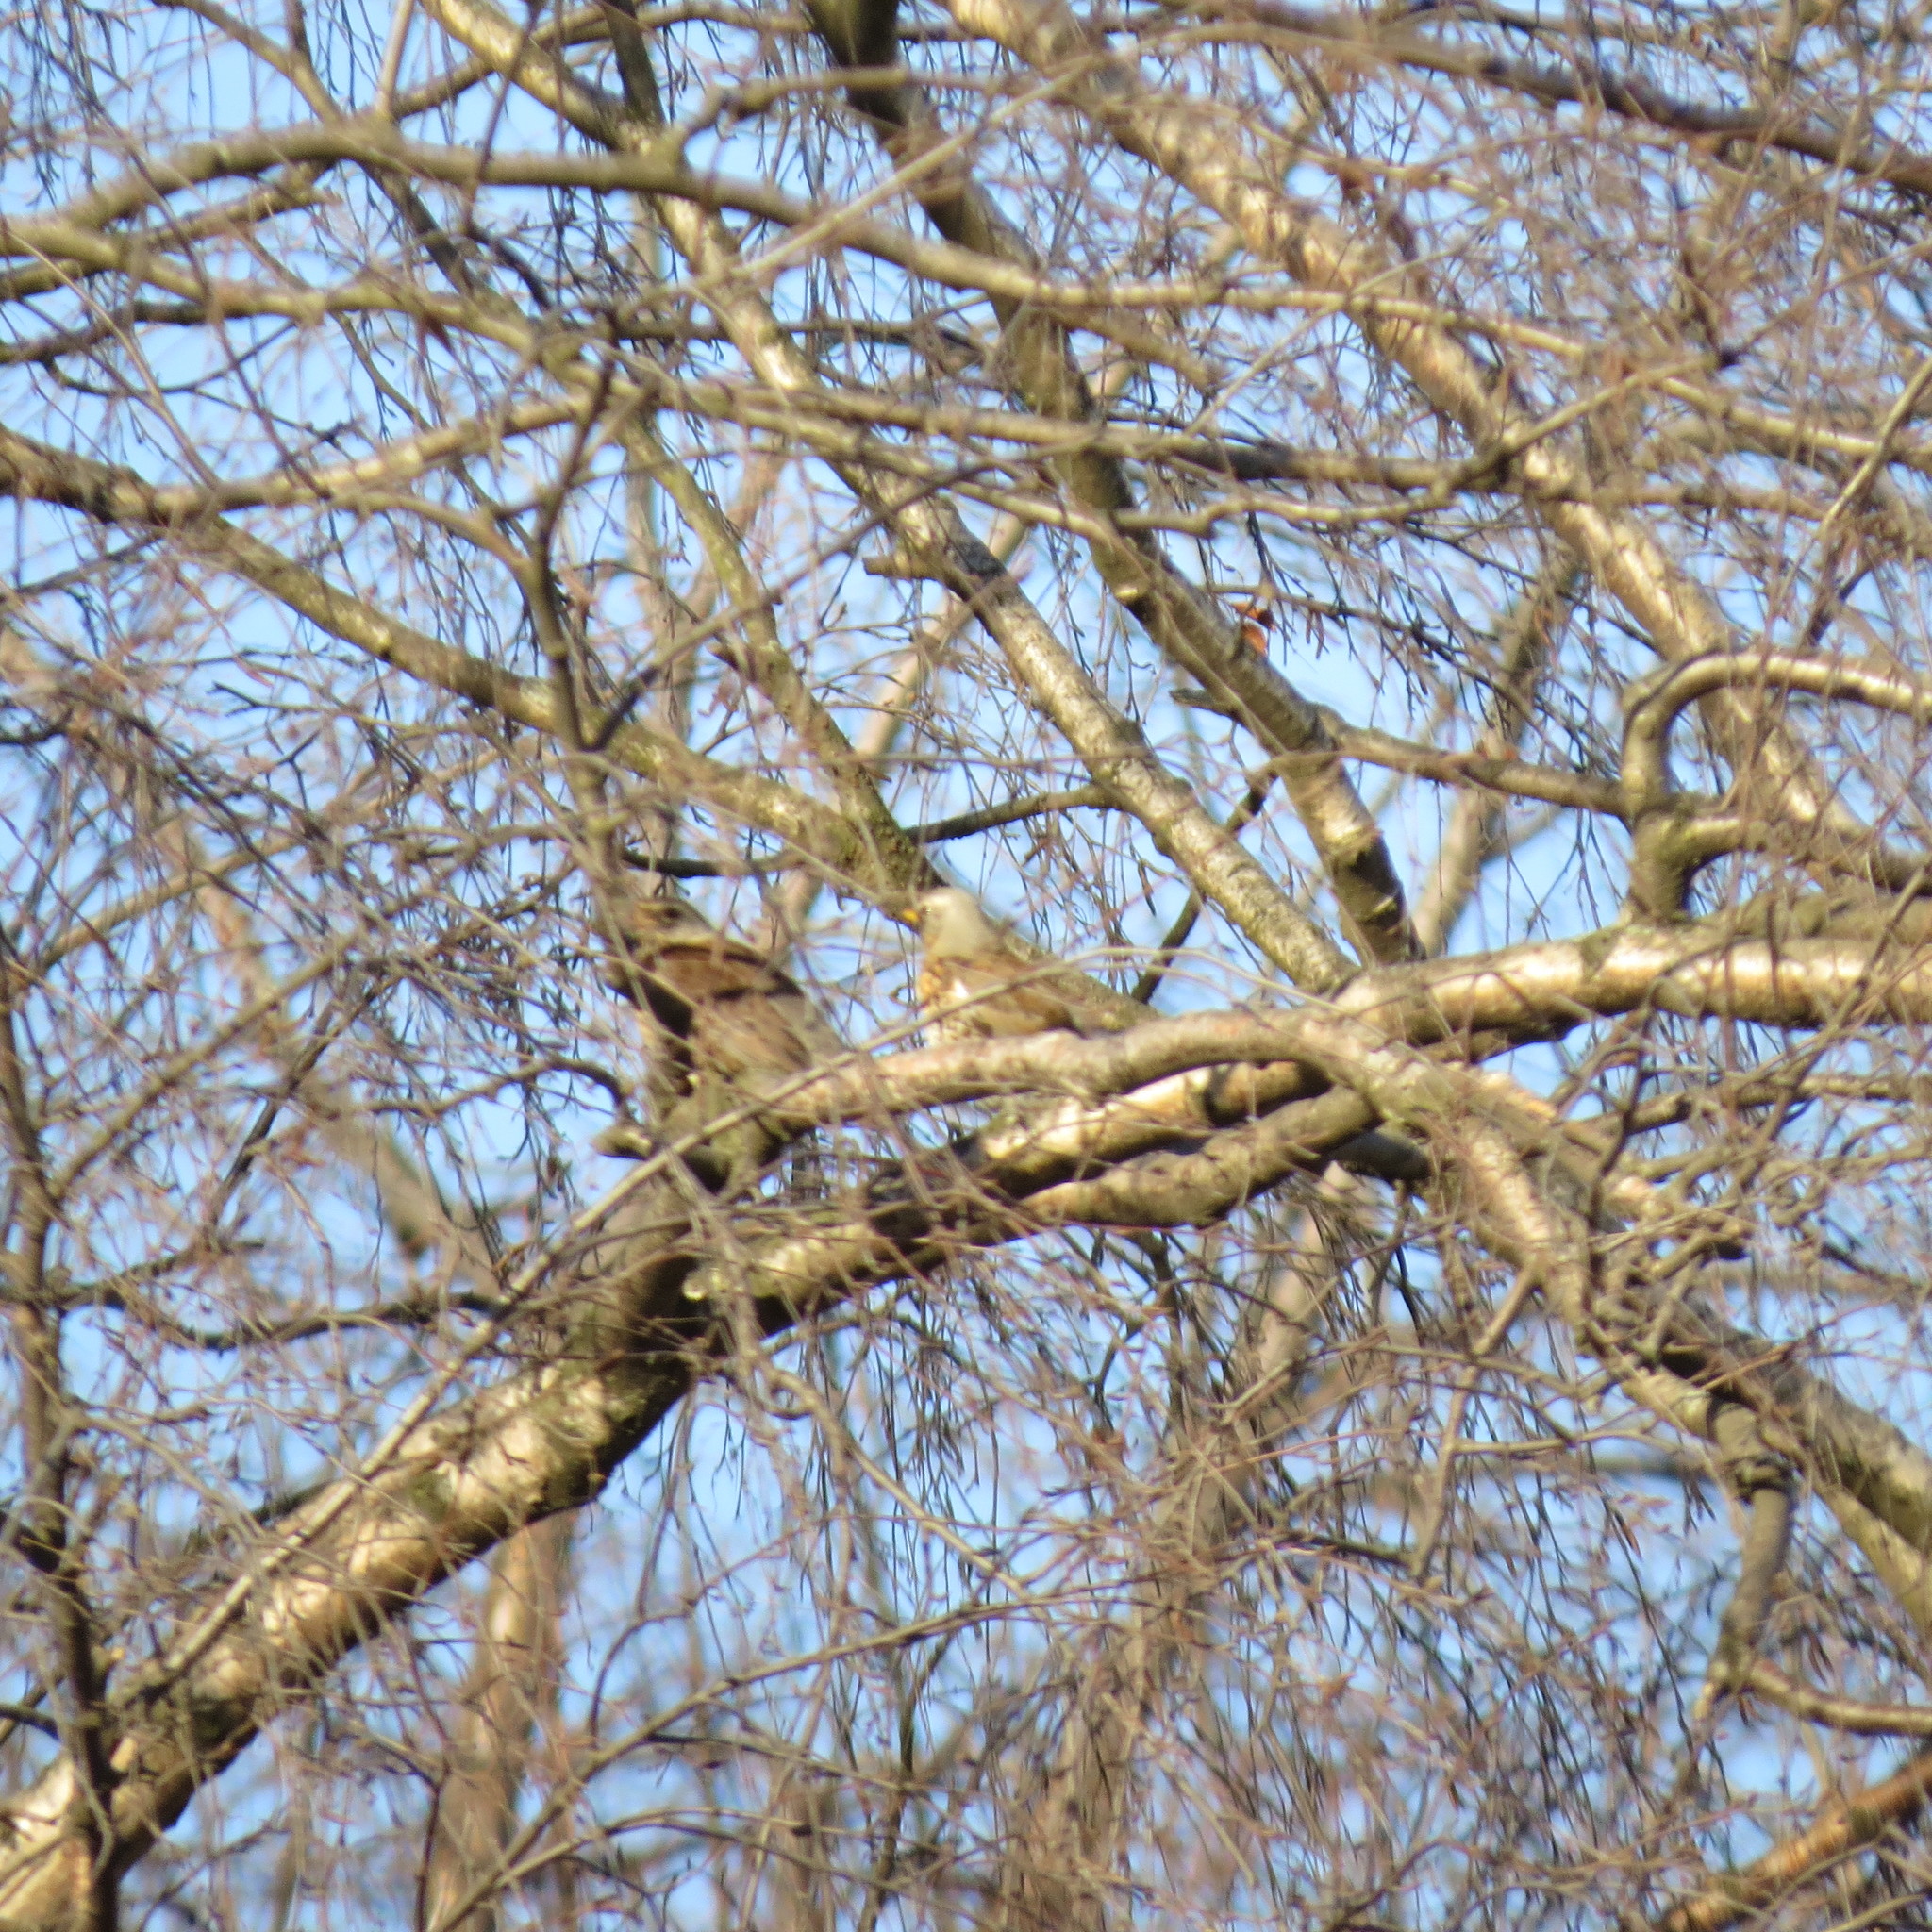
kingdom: Animalia
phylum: Chordata
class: Aves
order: Passeriformes
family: Turdidae
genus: Turdus
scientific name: Turdus pilaris
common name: Fieldfare
